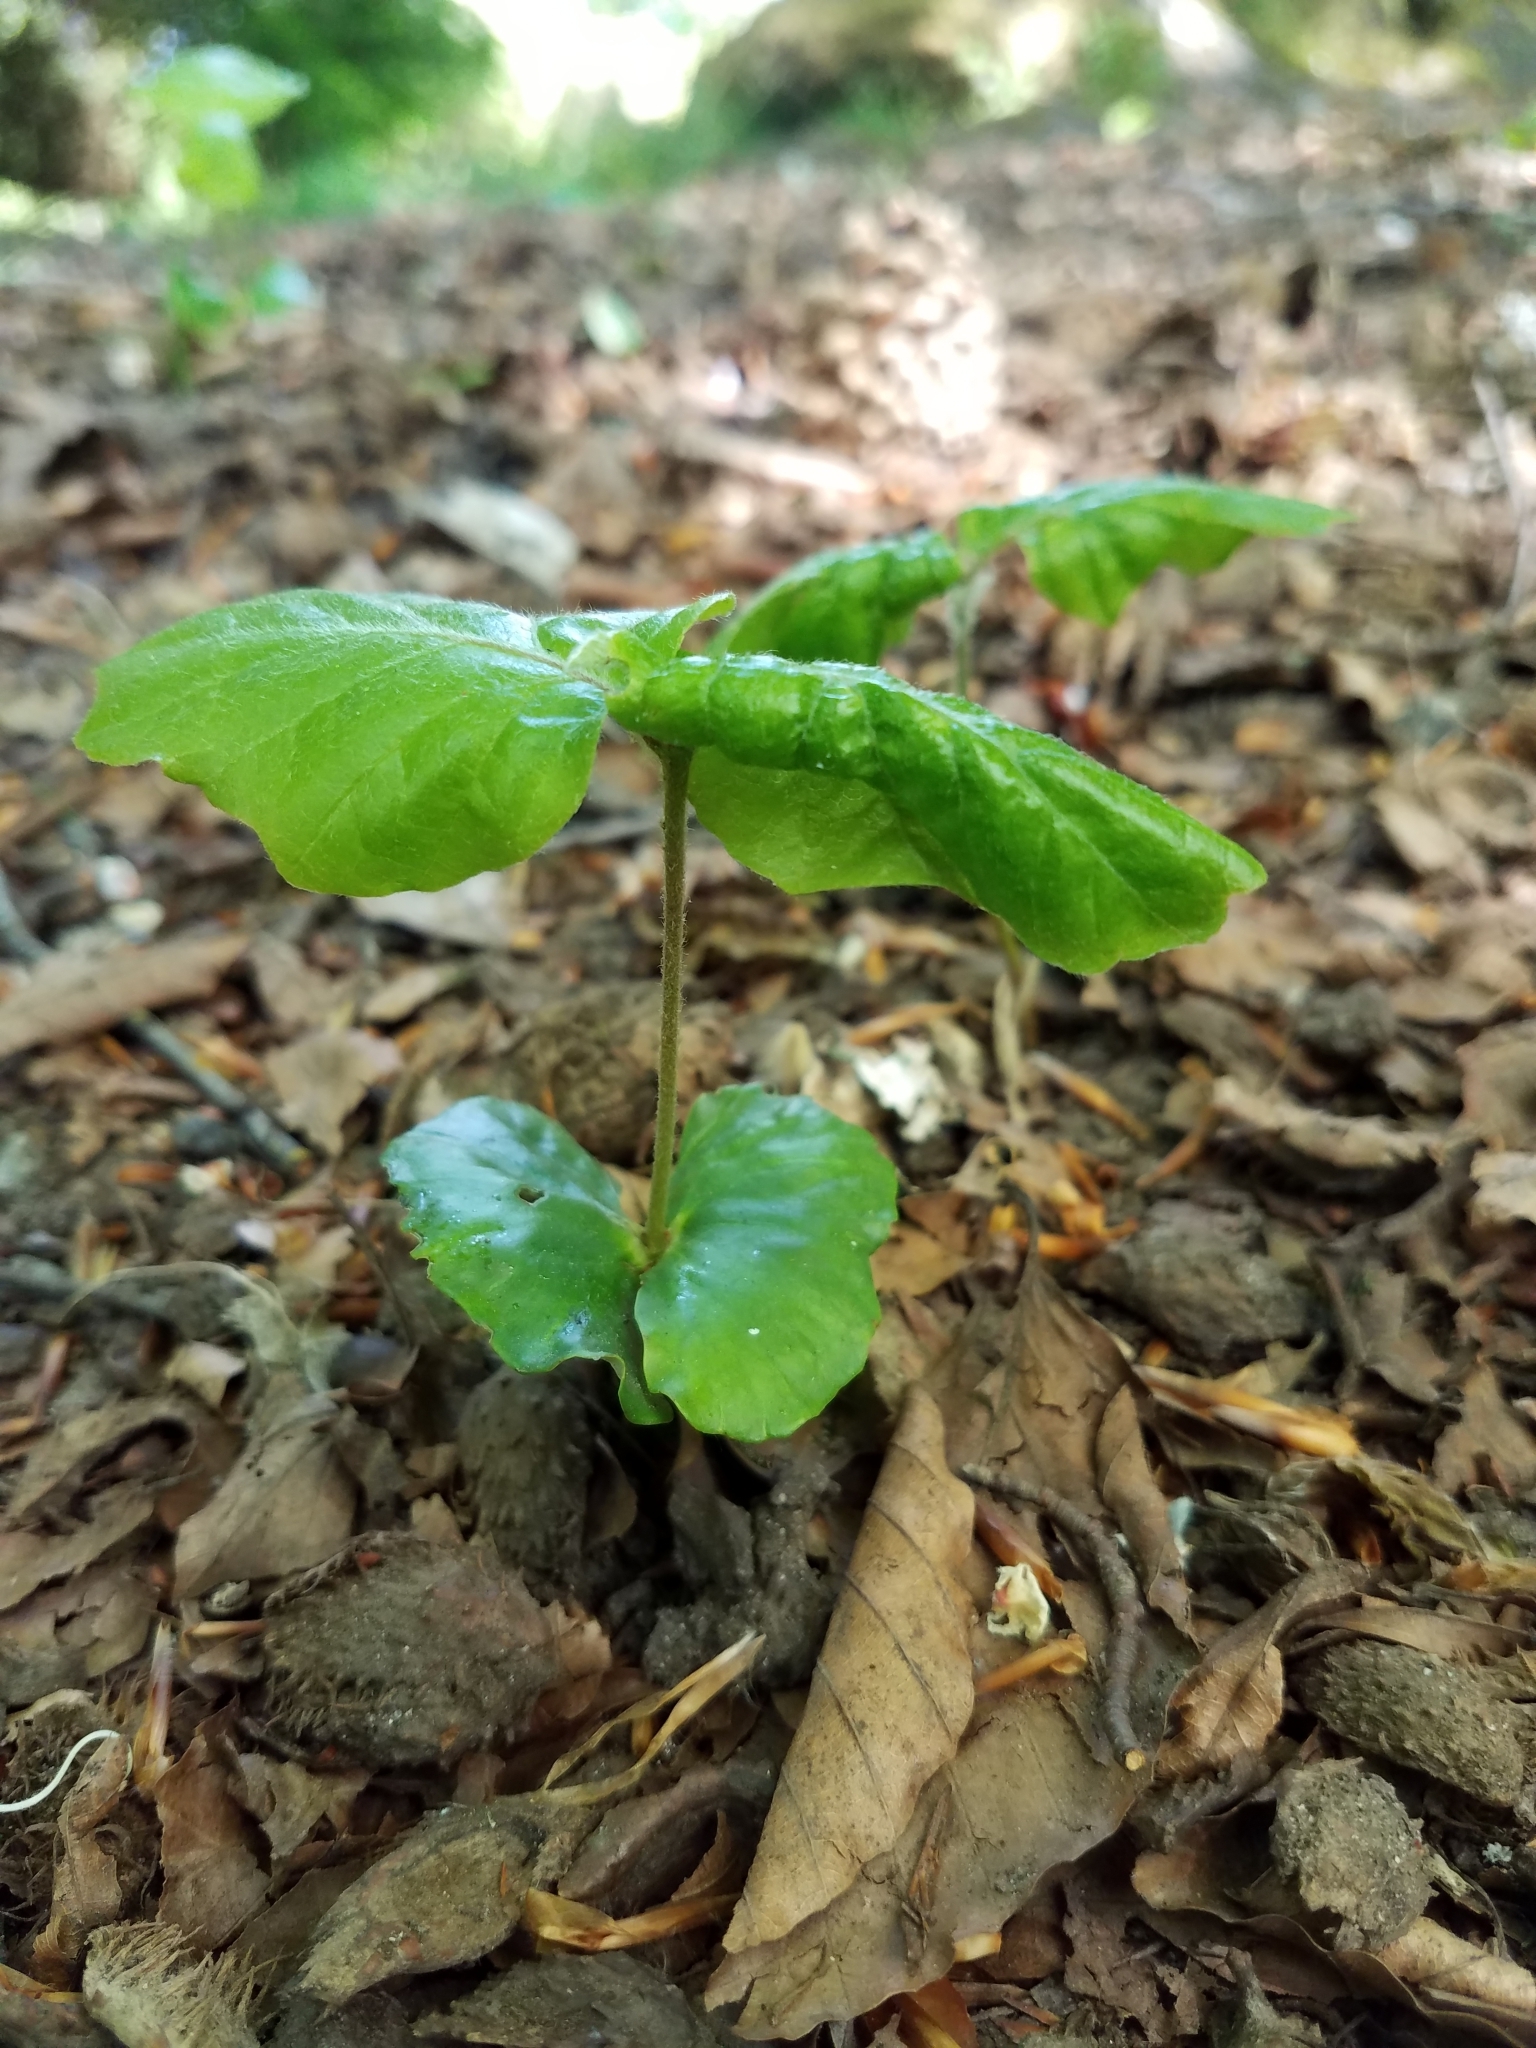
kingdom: Plantae
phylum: Tracheophyta
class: Magnoliopsida
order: Fagales
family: Fagaceae
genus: Fagus
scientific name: Fagus sylvatica
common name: Beech
